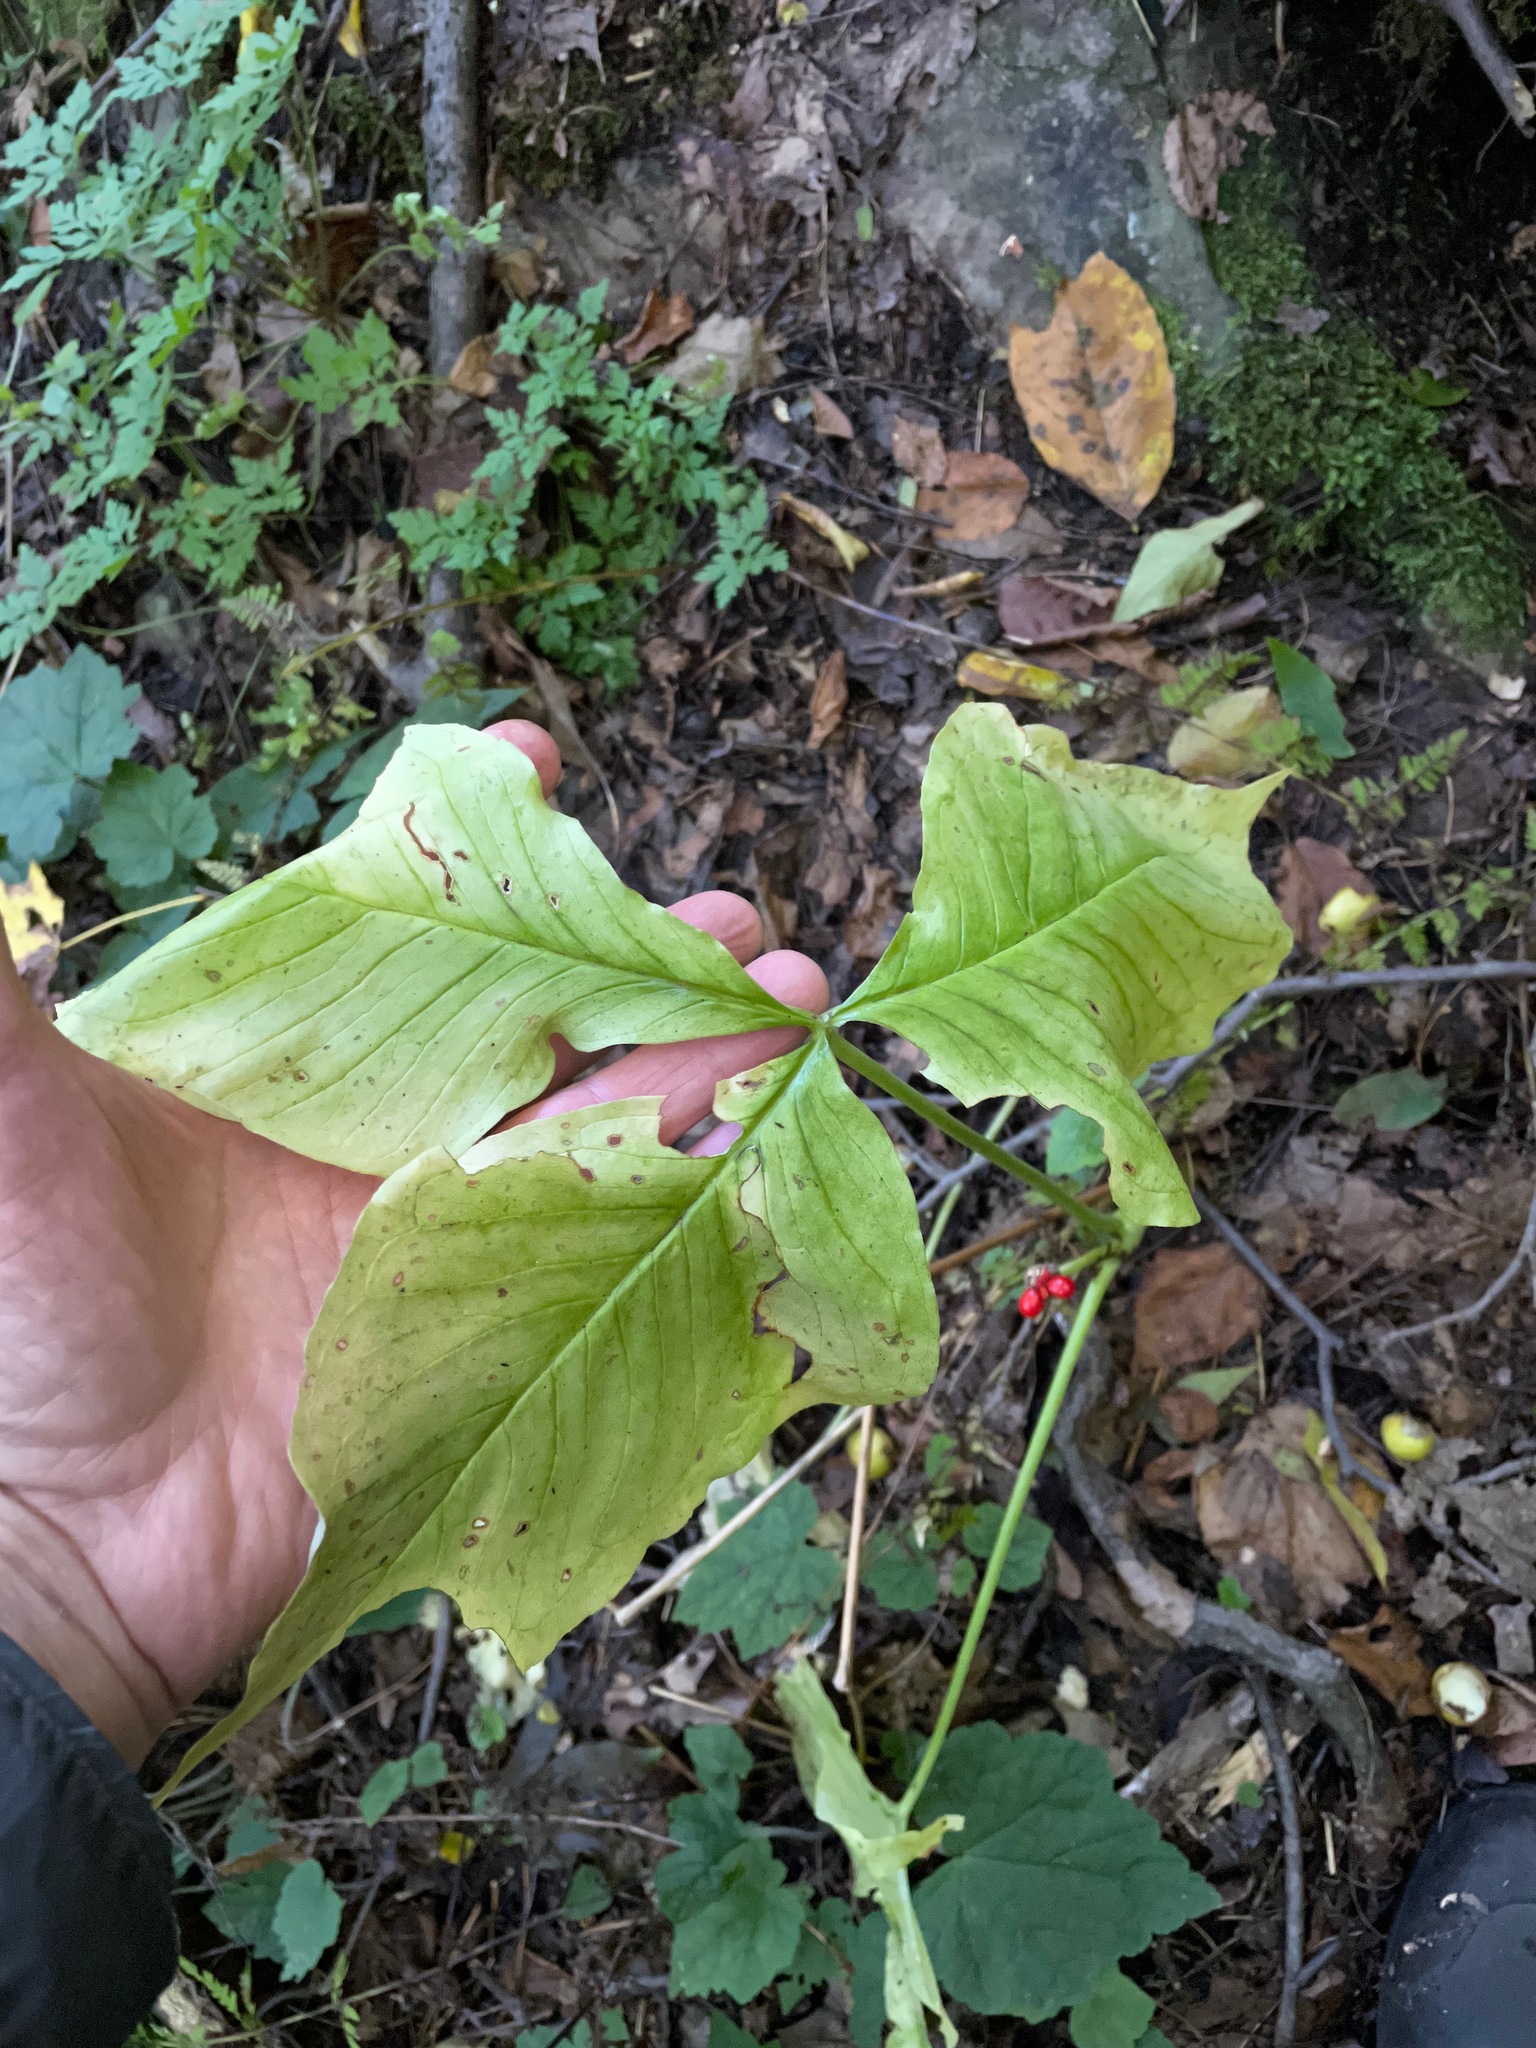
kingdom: Plantae
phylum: Tracheophyta
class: Liliopsida
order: Alismatales
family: Araceae
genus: Arisaema
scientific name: Arisaema triphyllum
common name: Jack-in-the-pulpit
